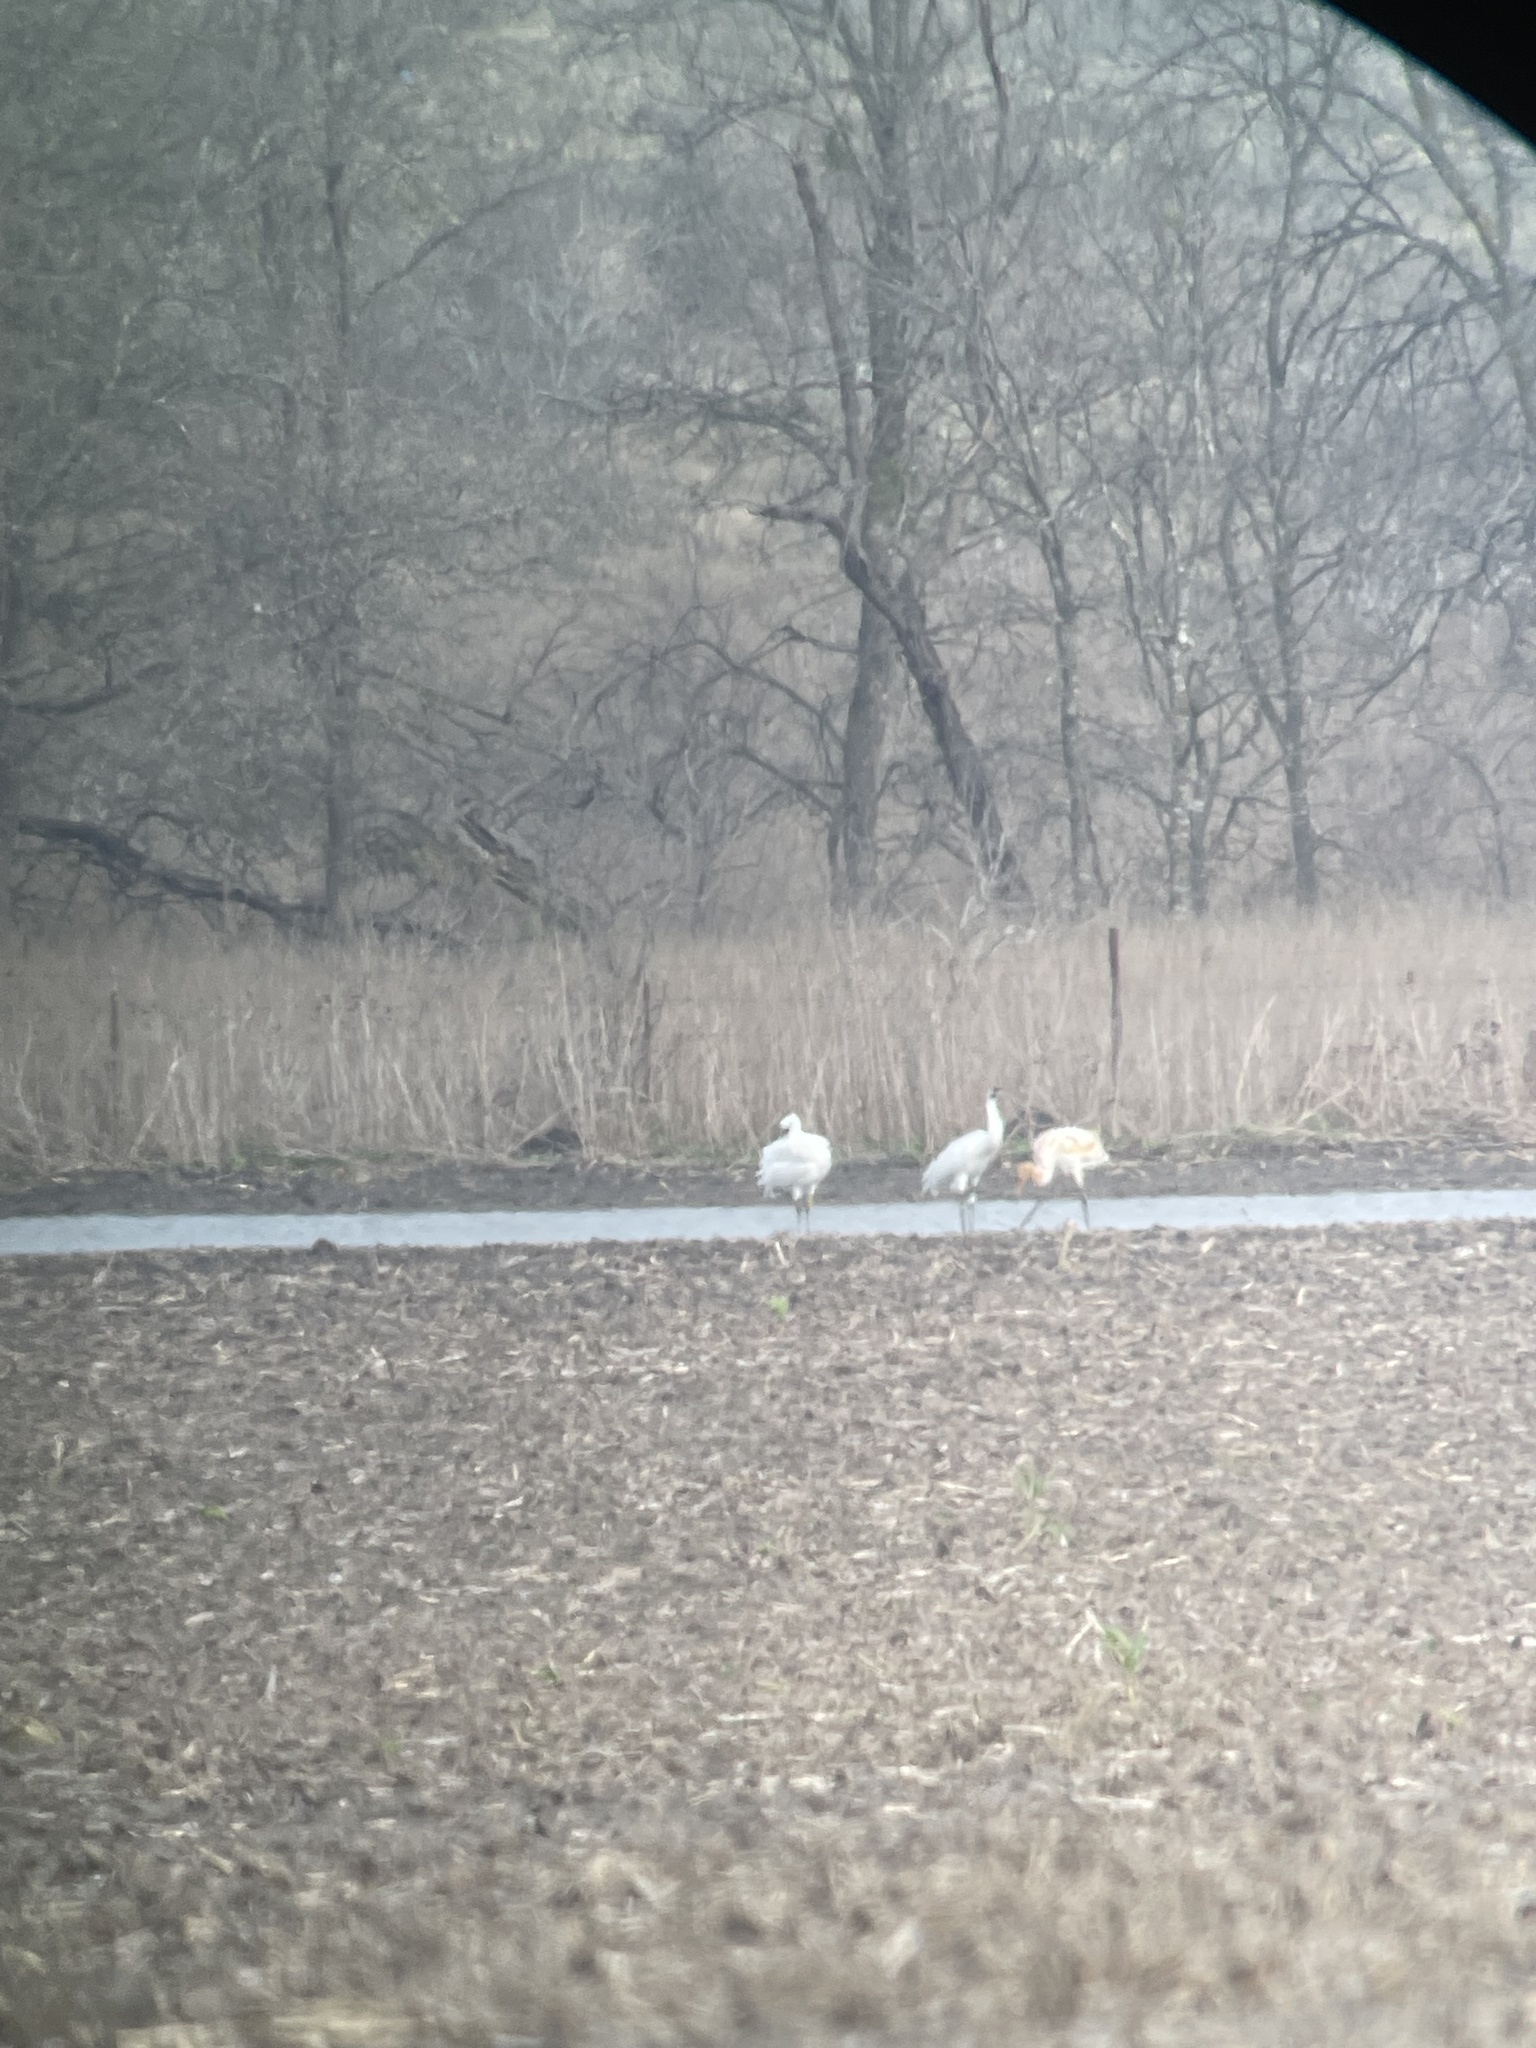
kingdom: Animalia
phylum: Chordata
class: Aves
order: Gruiformes
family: Gruidae
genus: Grus
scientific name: Grus americana
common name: Whooping crane
